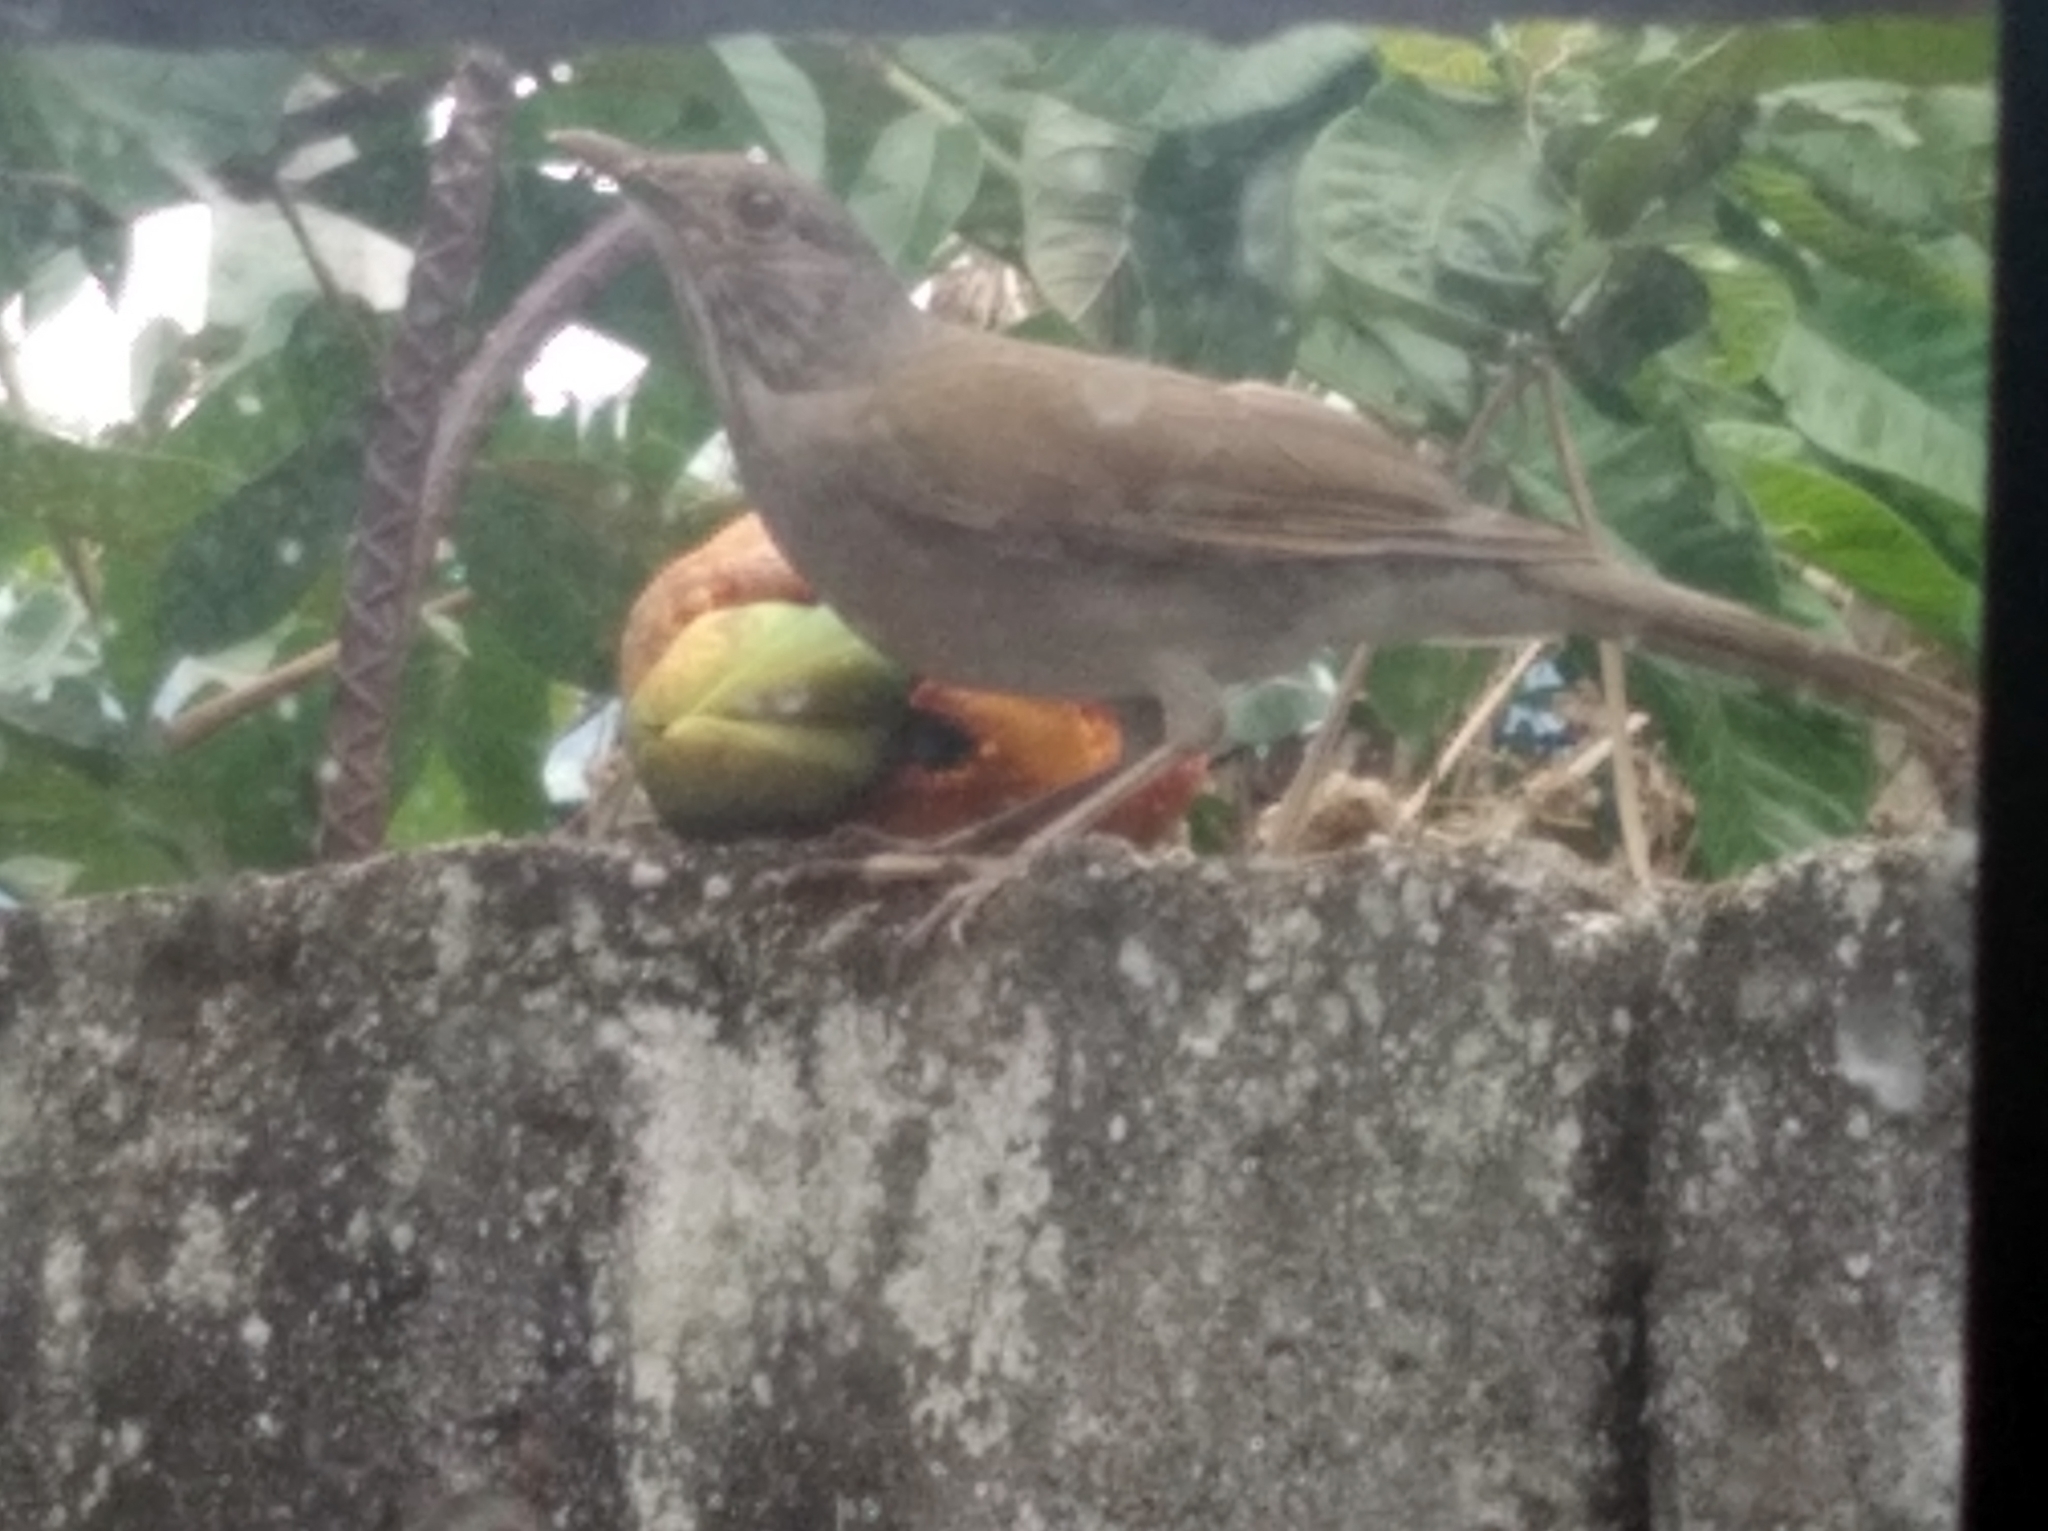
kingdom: Animalia
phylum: Chordata
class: Aves
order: Passeriformes
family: Turdidae
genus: Turdus
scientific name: Turdus leucomelas
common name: Pale-breasted thrush
